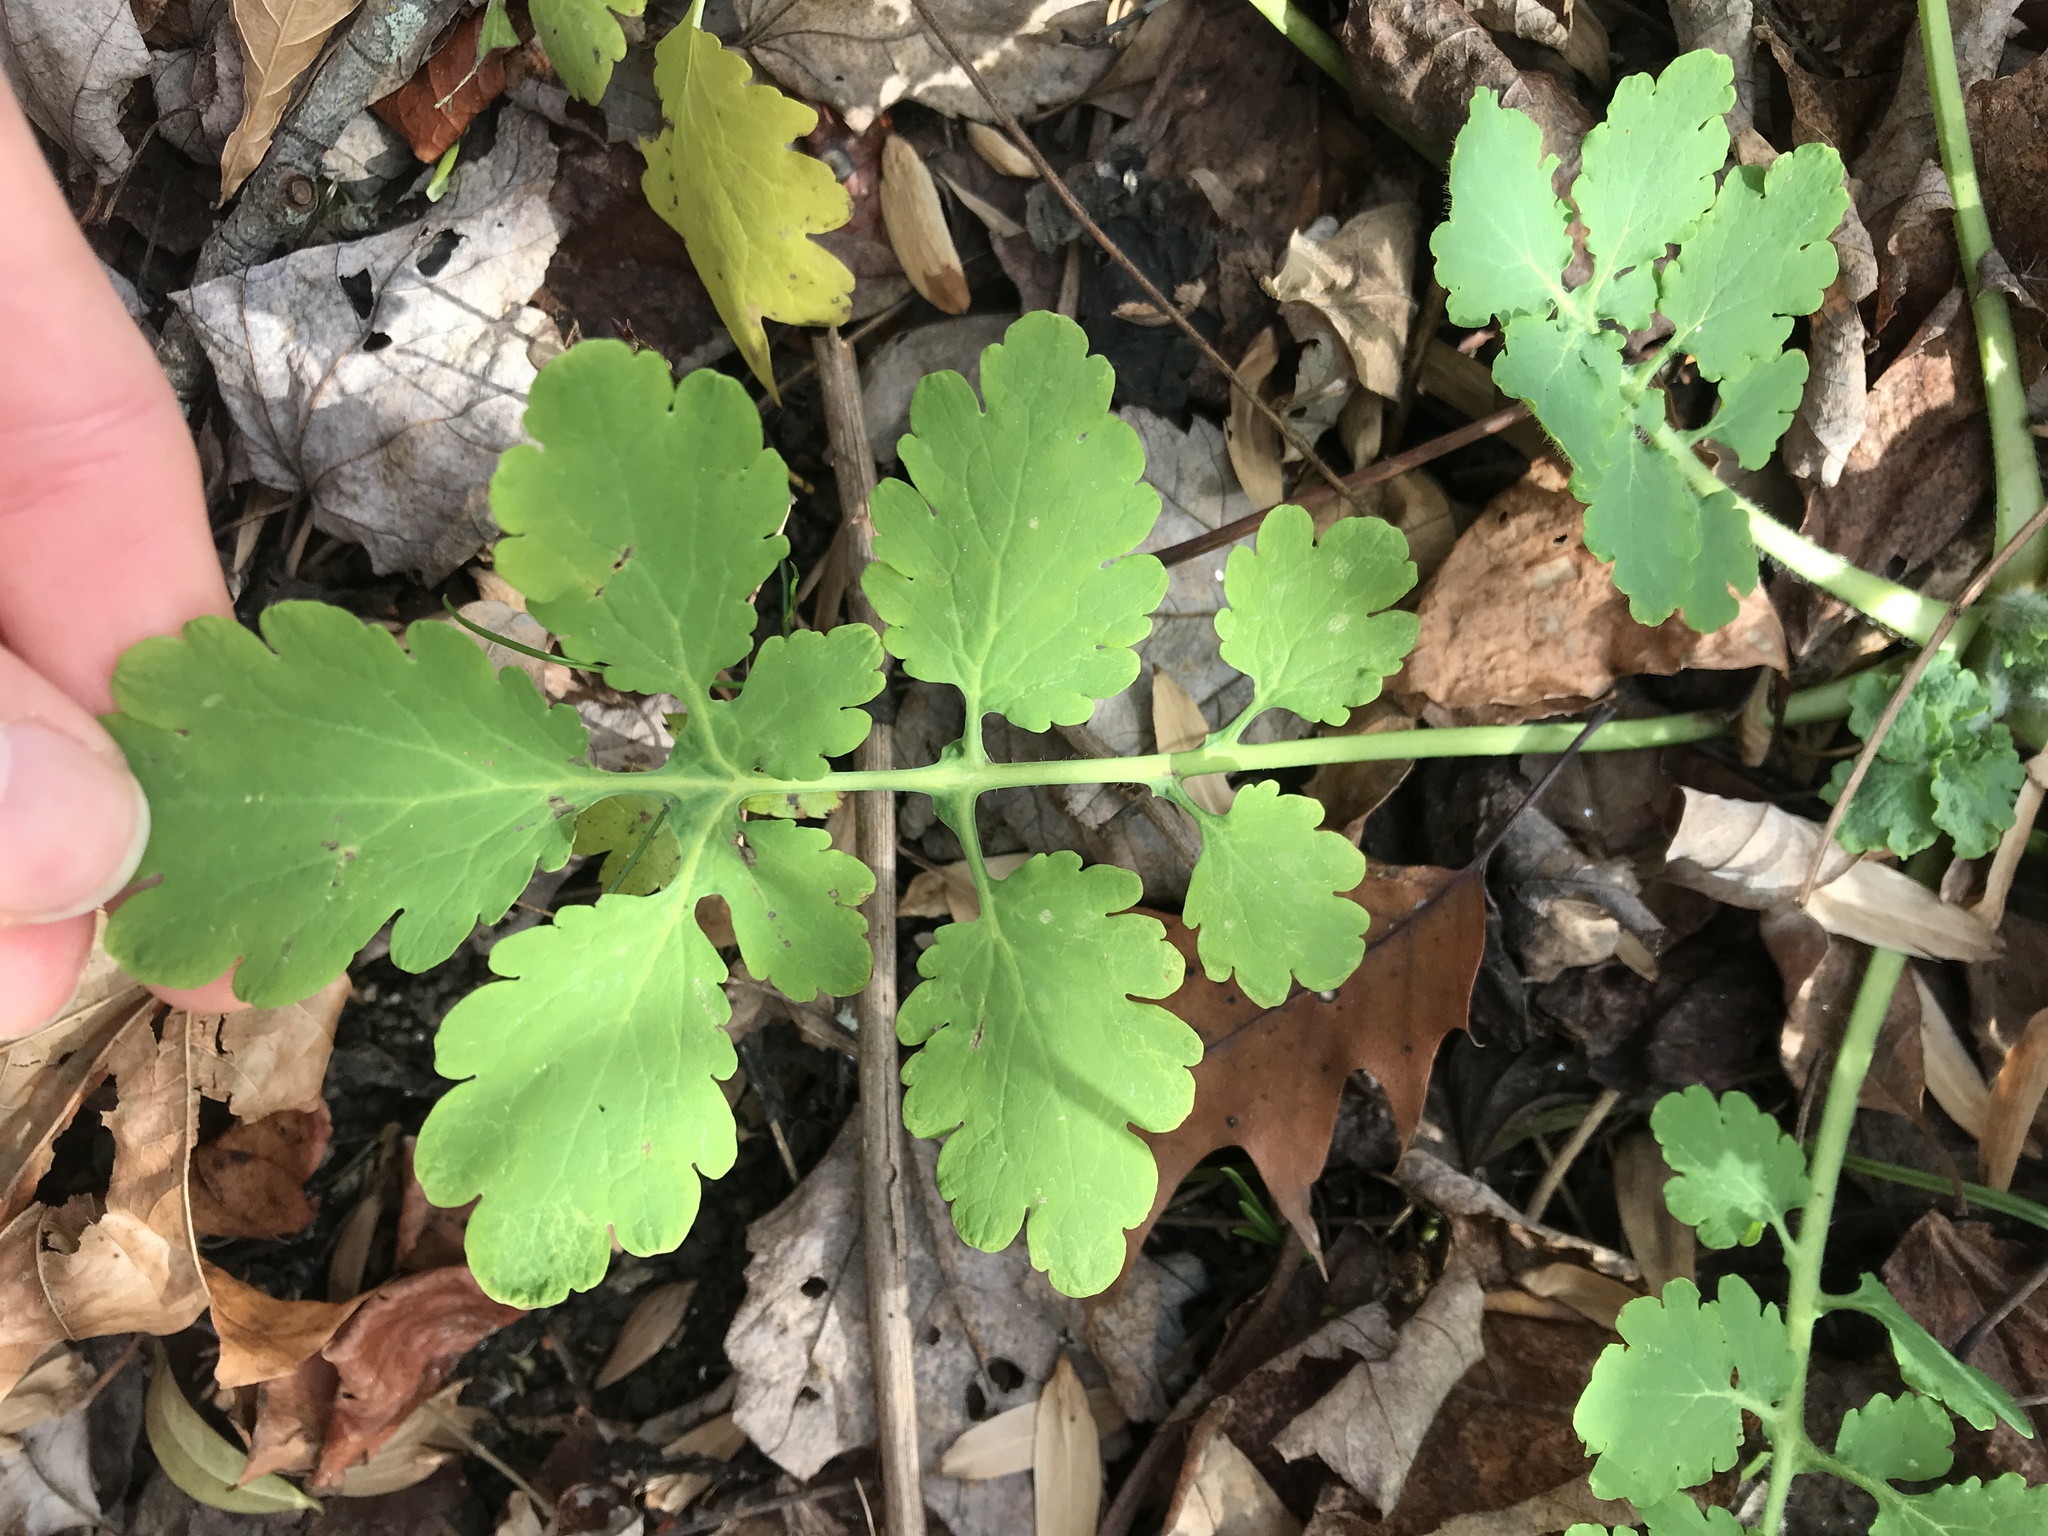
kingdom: Plantae
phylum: Tracheophyta
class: Magnoliopsida
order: Ranunculales
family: Papaveraceae
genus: Chelidonium
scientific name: Chelidonium majus
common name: Greater celandine
